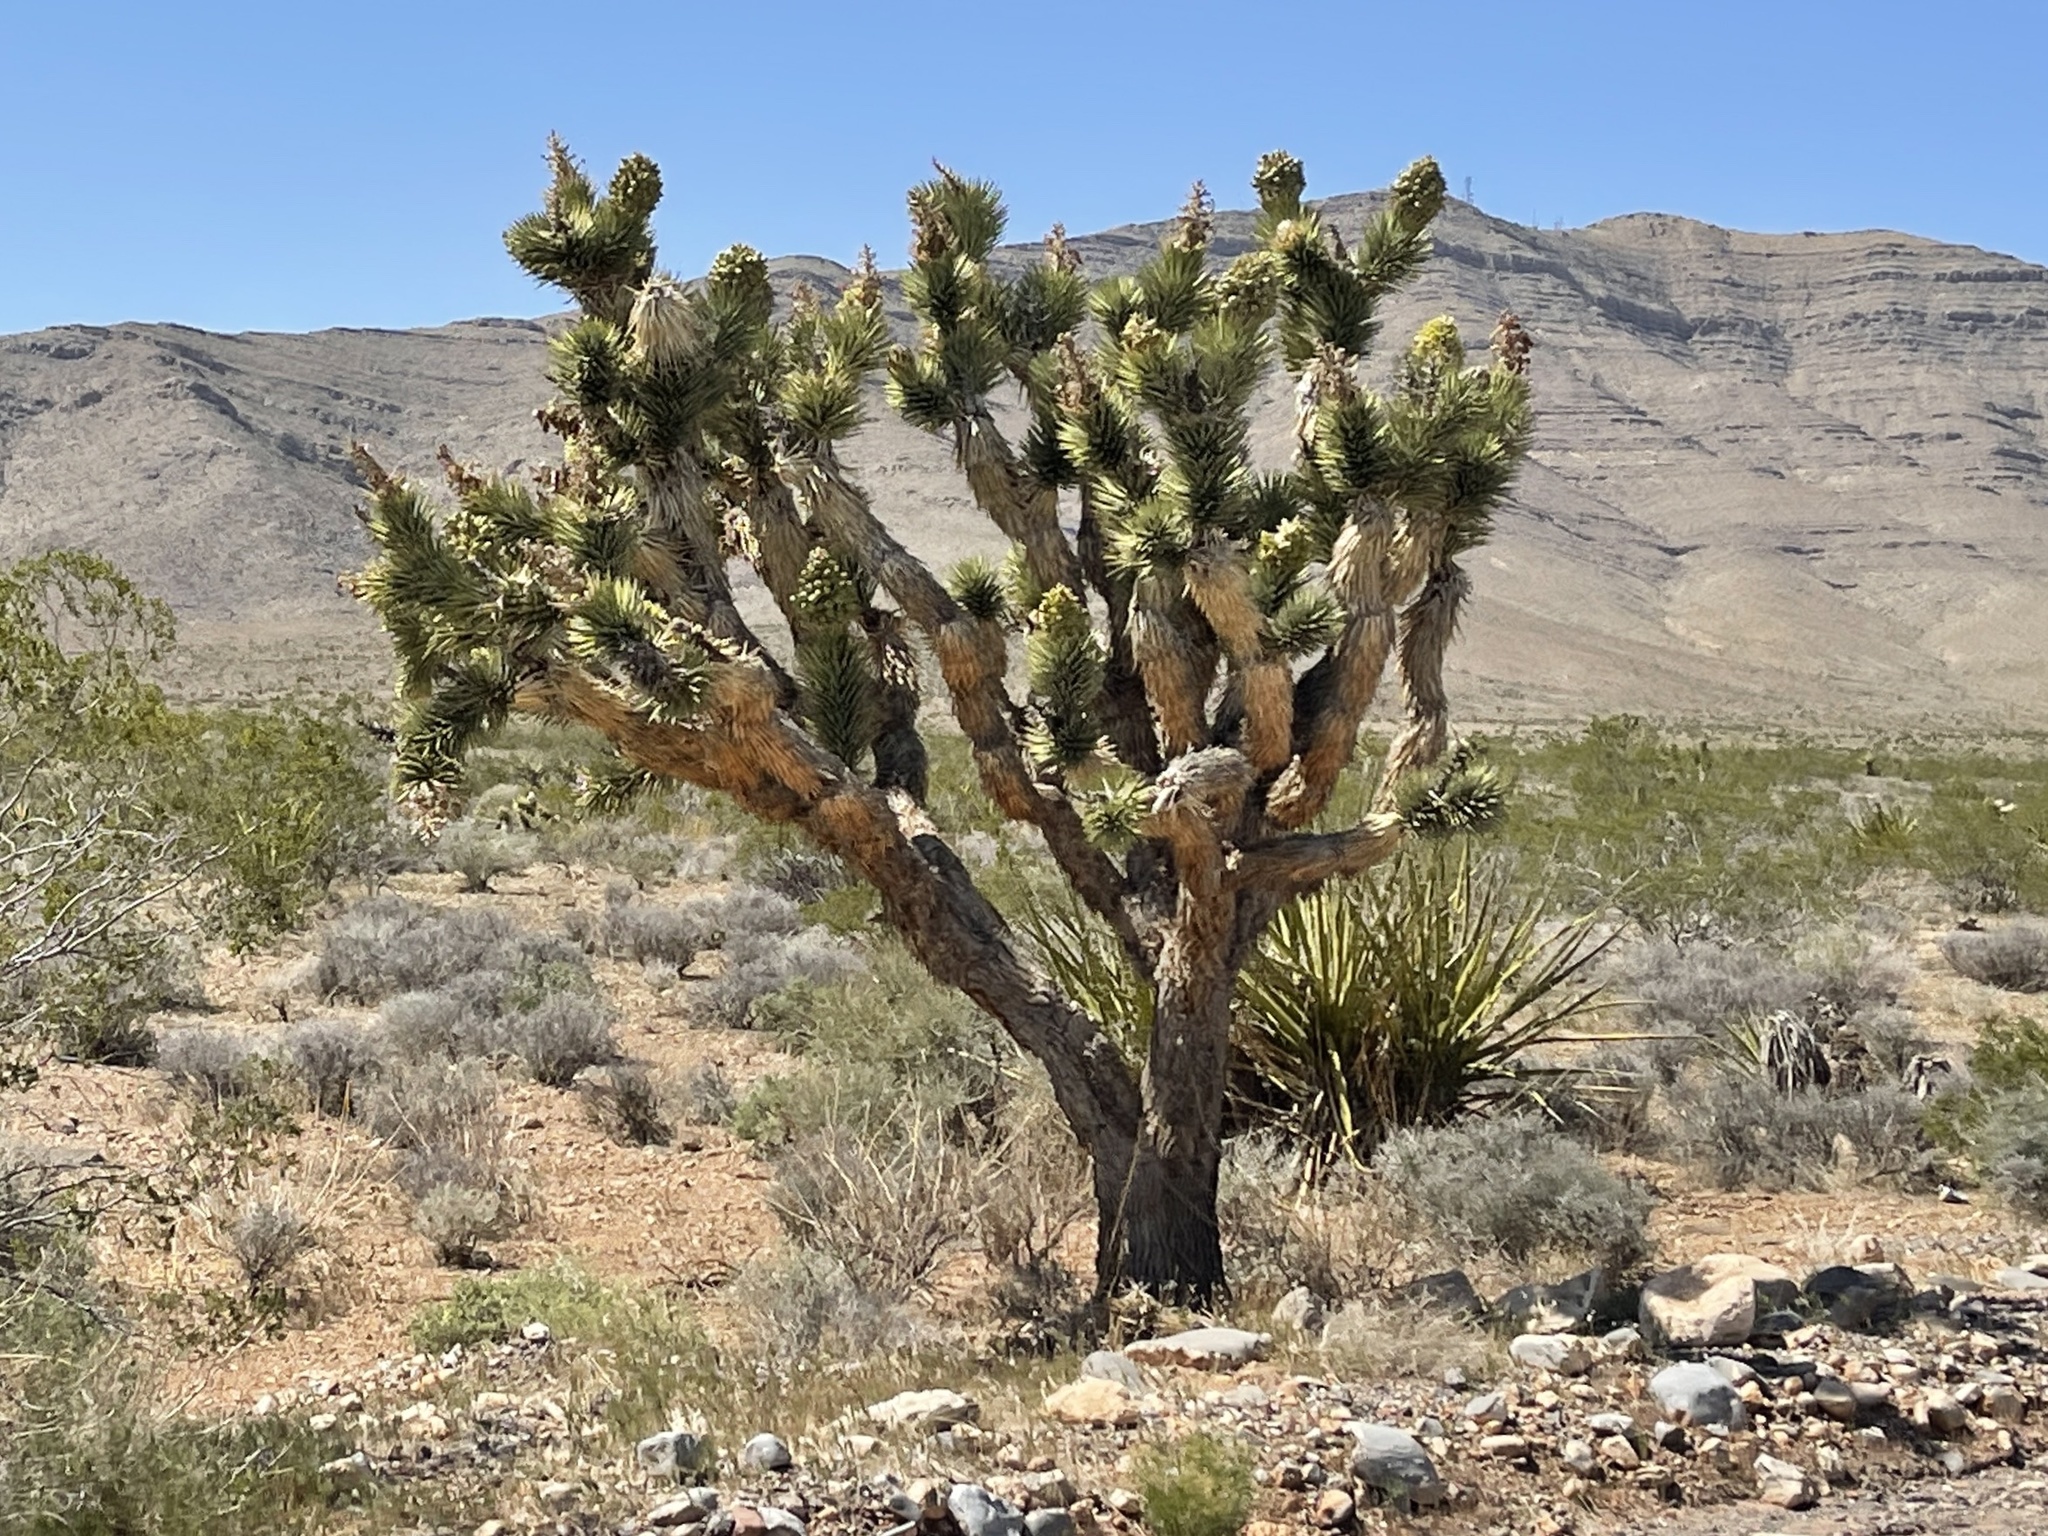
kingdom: Plantae
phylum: Tracheophyta
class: Liliopsida
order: Asparagales
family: Asparagaceae
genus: Yucca
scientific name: Yucca brevifolia
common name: Joshua tree
